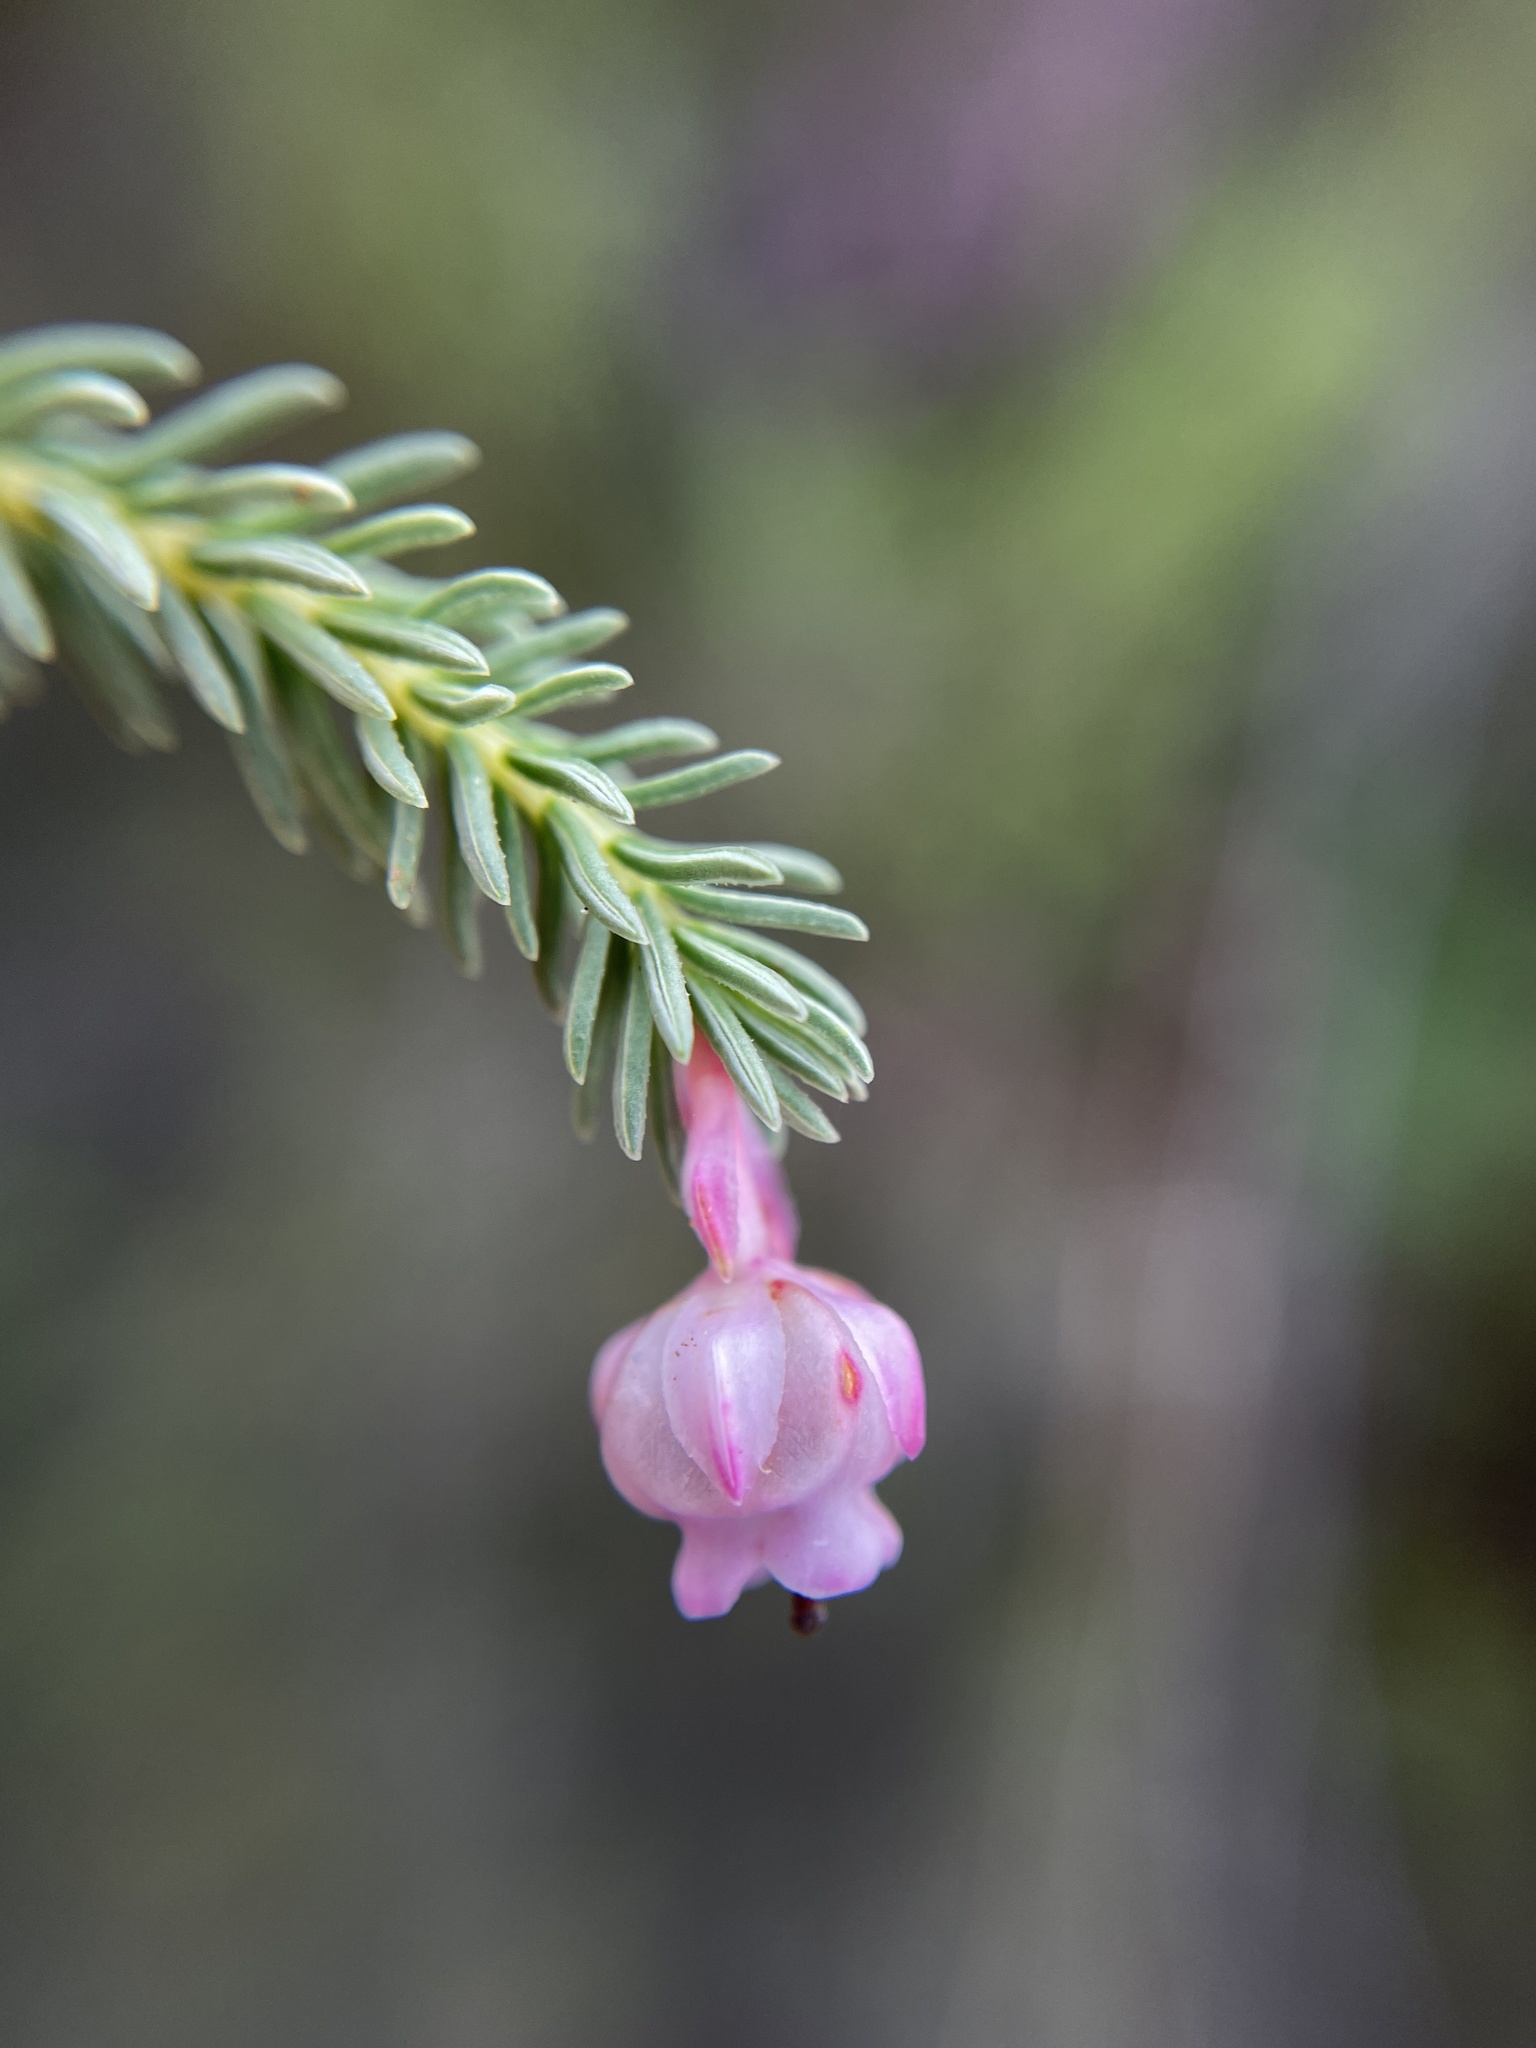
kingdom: Plantae
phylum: Tracheophyta
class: Magnoliopsida
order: Ericales
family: Ericaceae
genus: Erica
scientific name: Erica baccans
